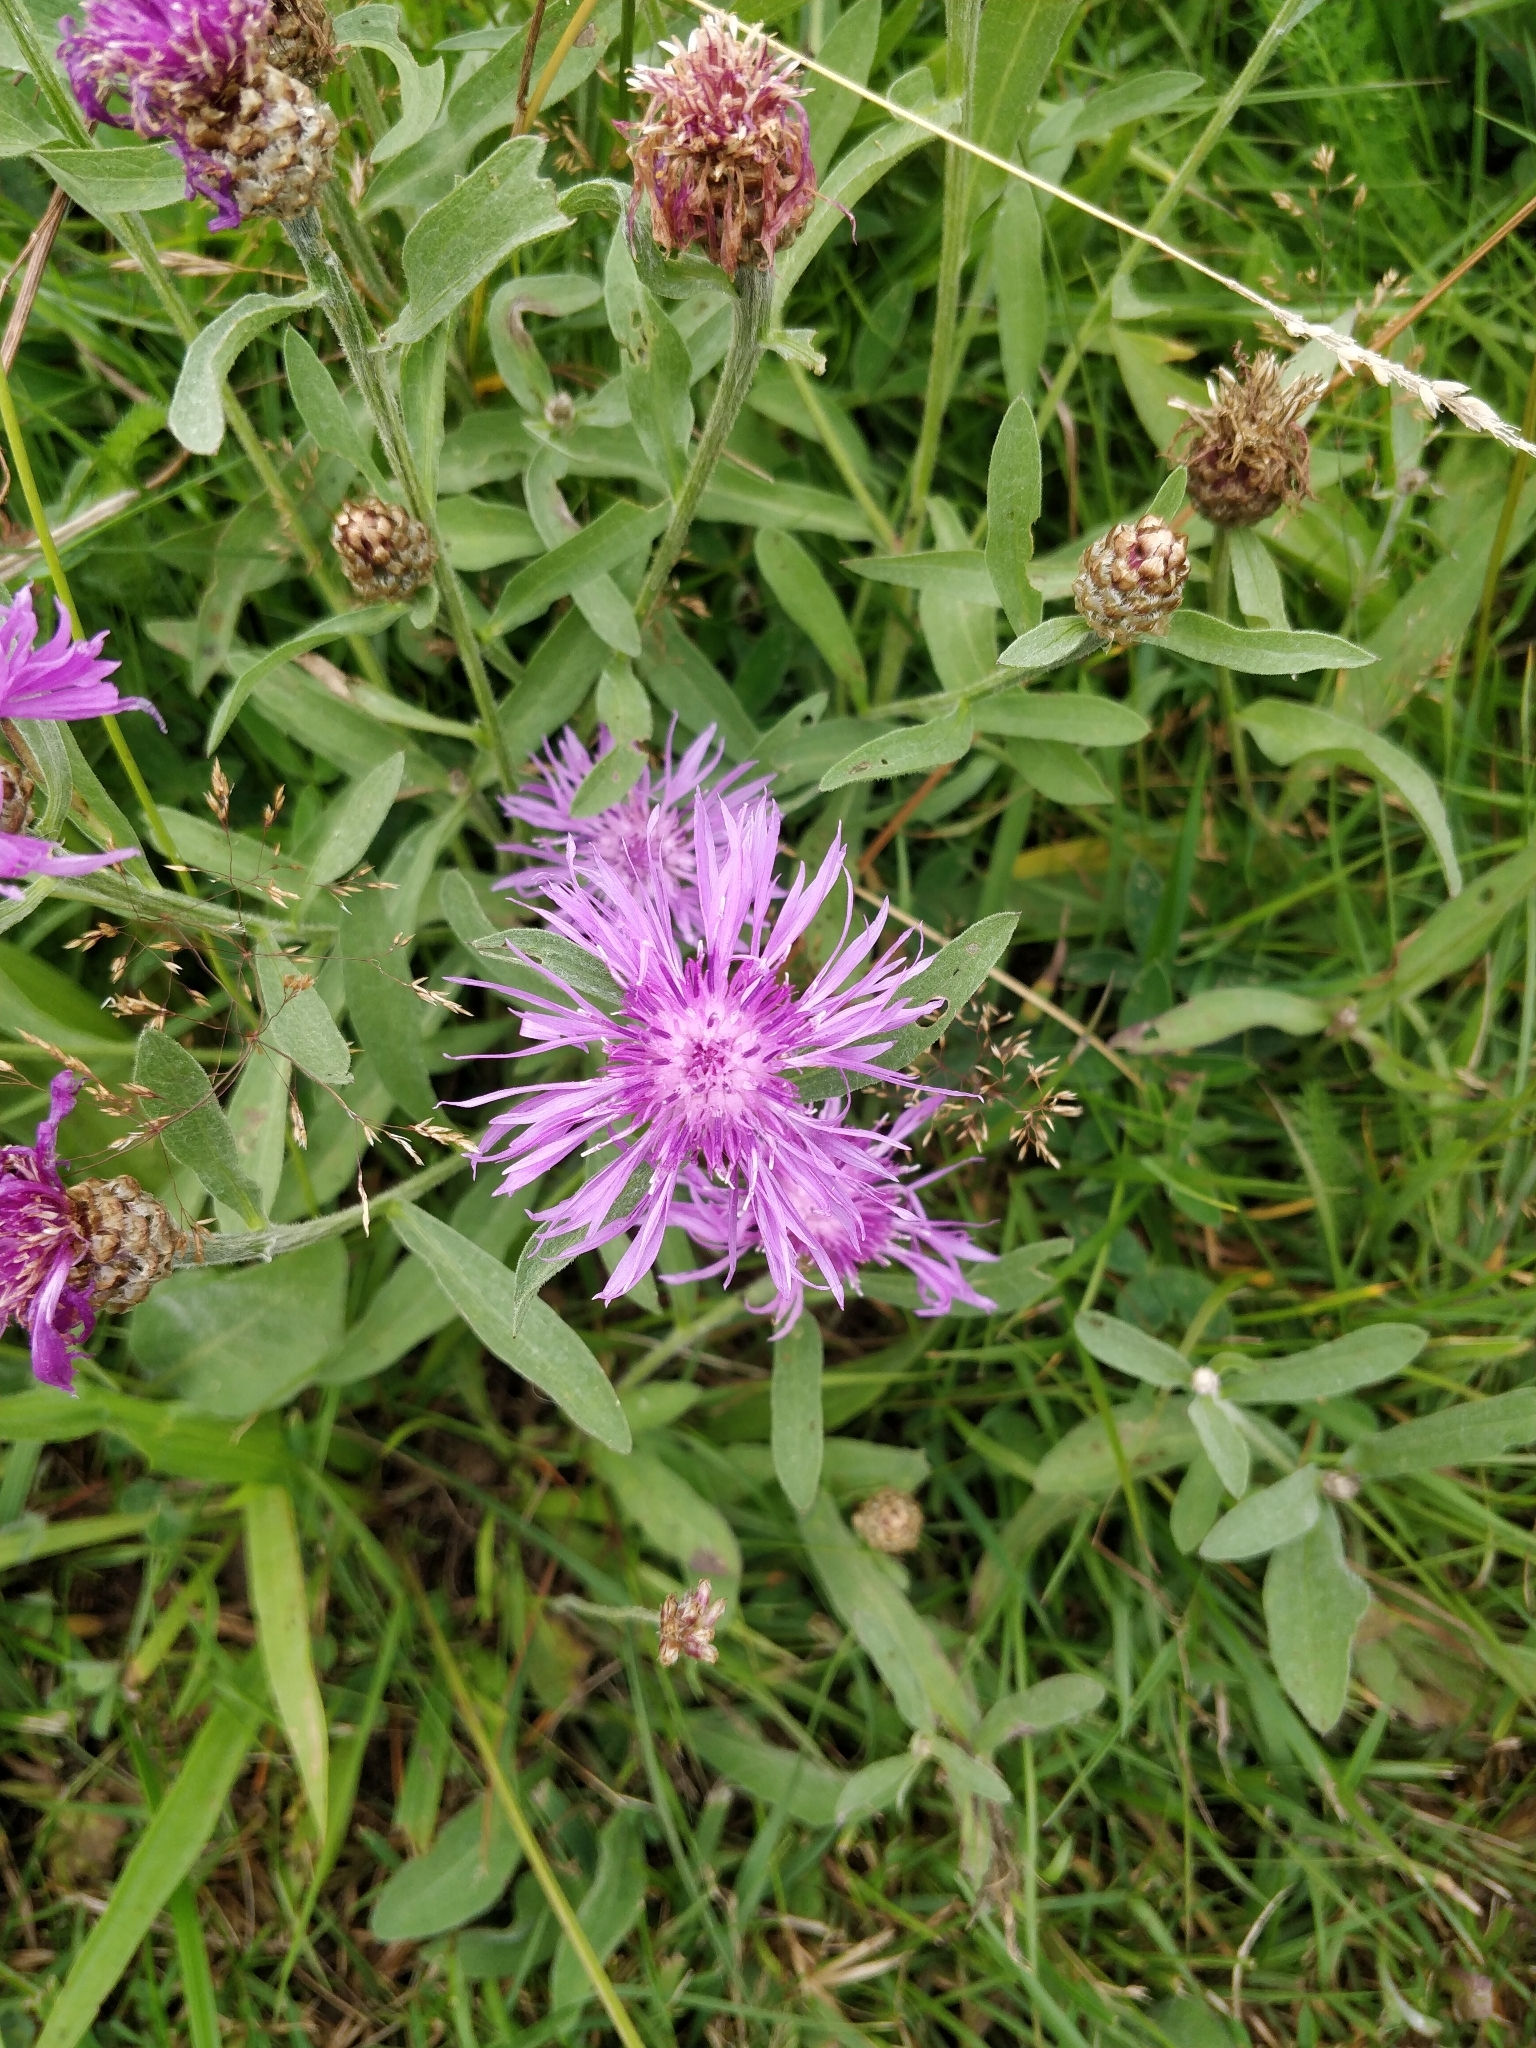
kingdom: Plantae
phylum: Tracheophyta
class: Magnoliopsida
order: Asterales
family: Asteraceae
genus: Centaurea
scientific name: Centaurea jacea
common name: Brown knapweed
